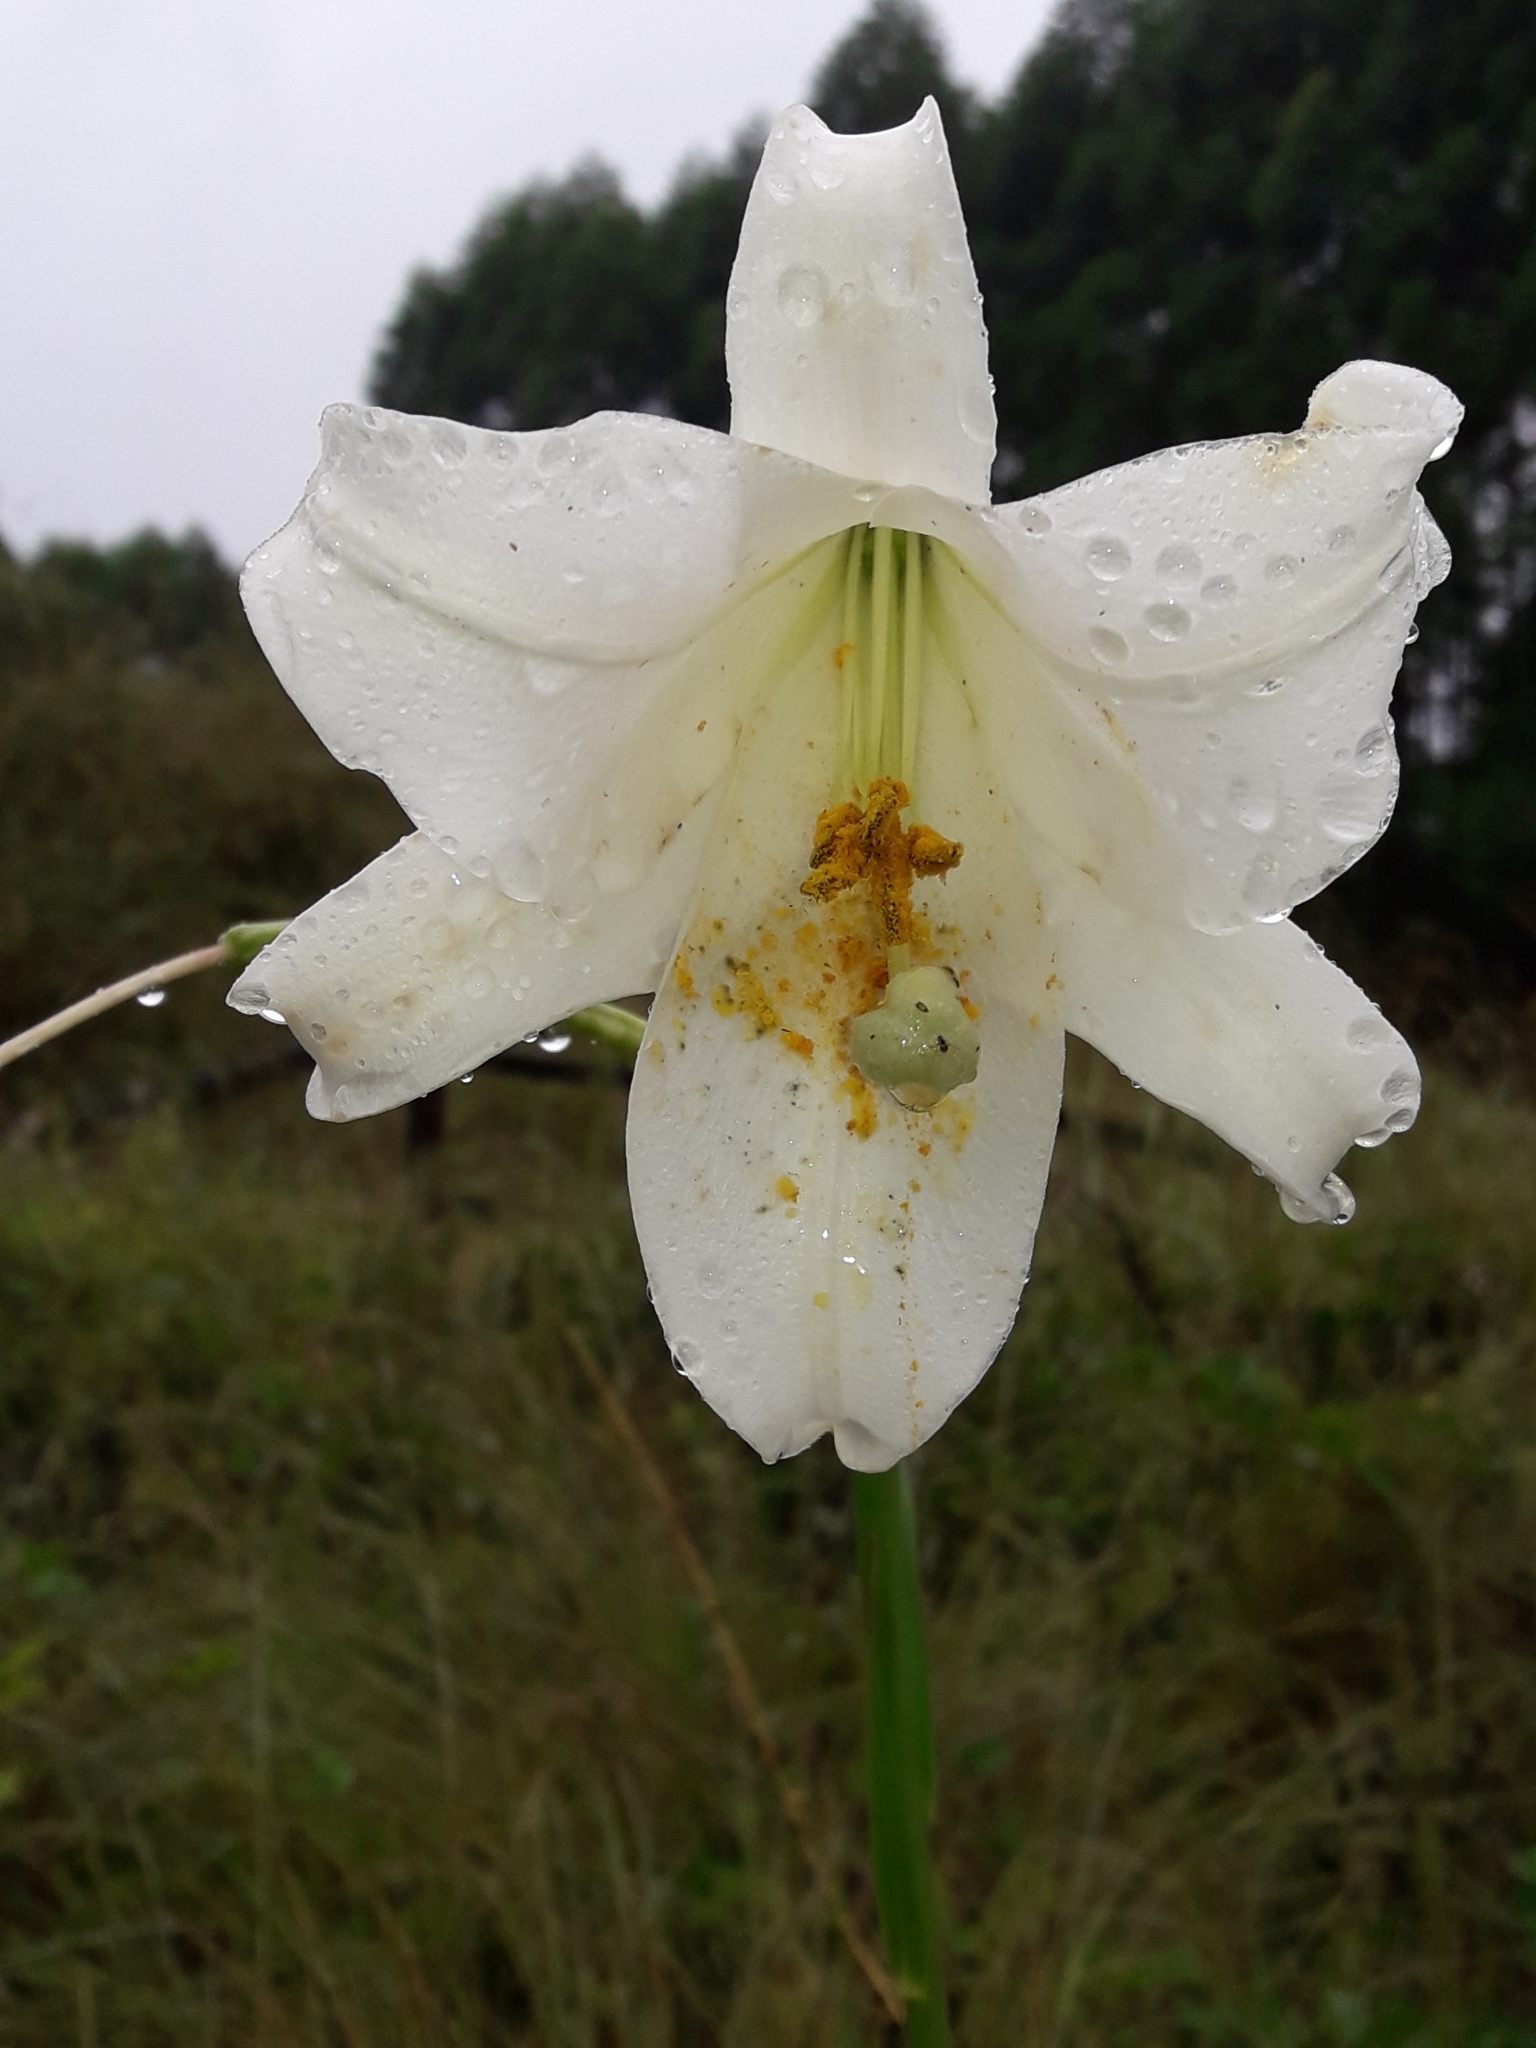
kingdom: Plantae
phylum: Tracheophyta
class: Liliopsida
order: Liliales
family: Liliaceae
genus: Lilium
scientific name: Lilium formosanum
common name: Formosa lily
